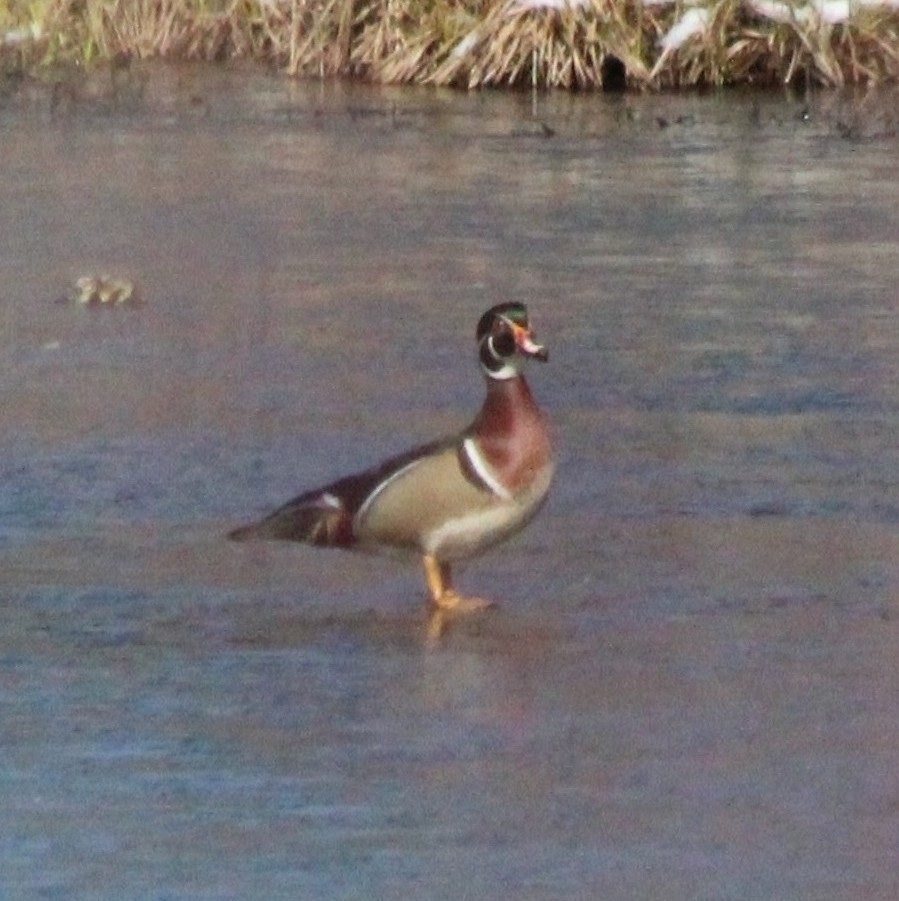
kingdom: Animalia
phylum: Chordata
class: Aves
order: Anseriformes
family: Anatidae
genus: Aix
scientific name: Aix sponsa
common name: Wood duck
